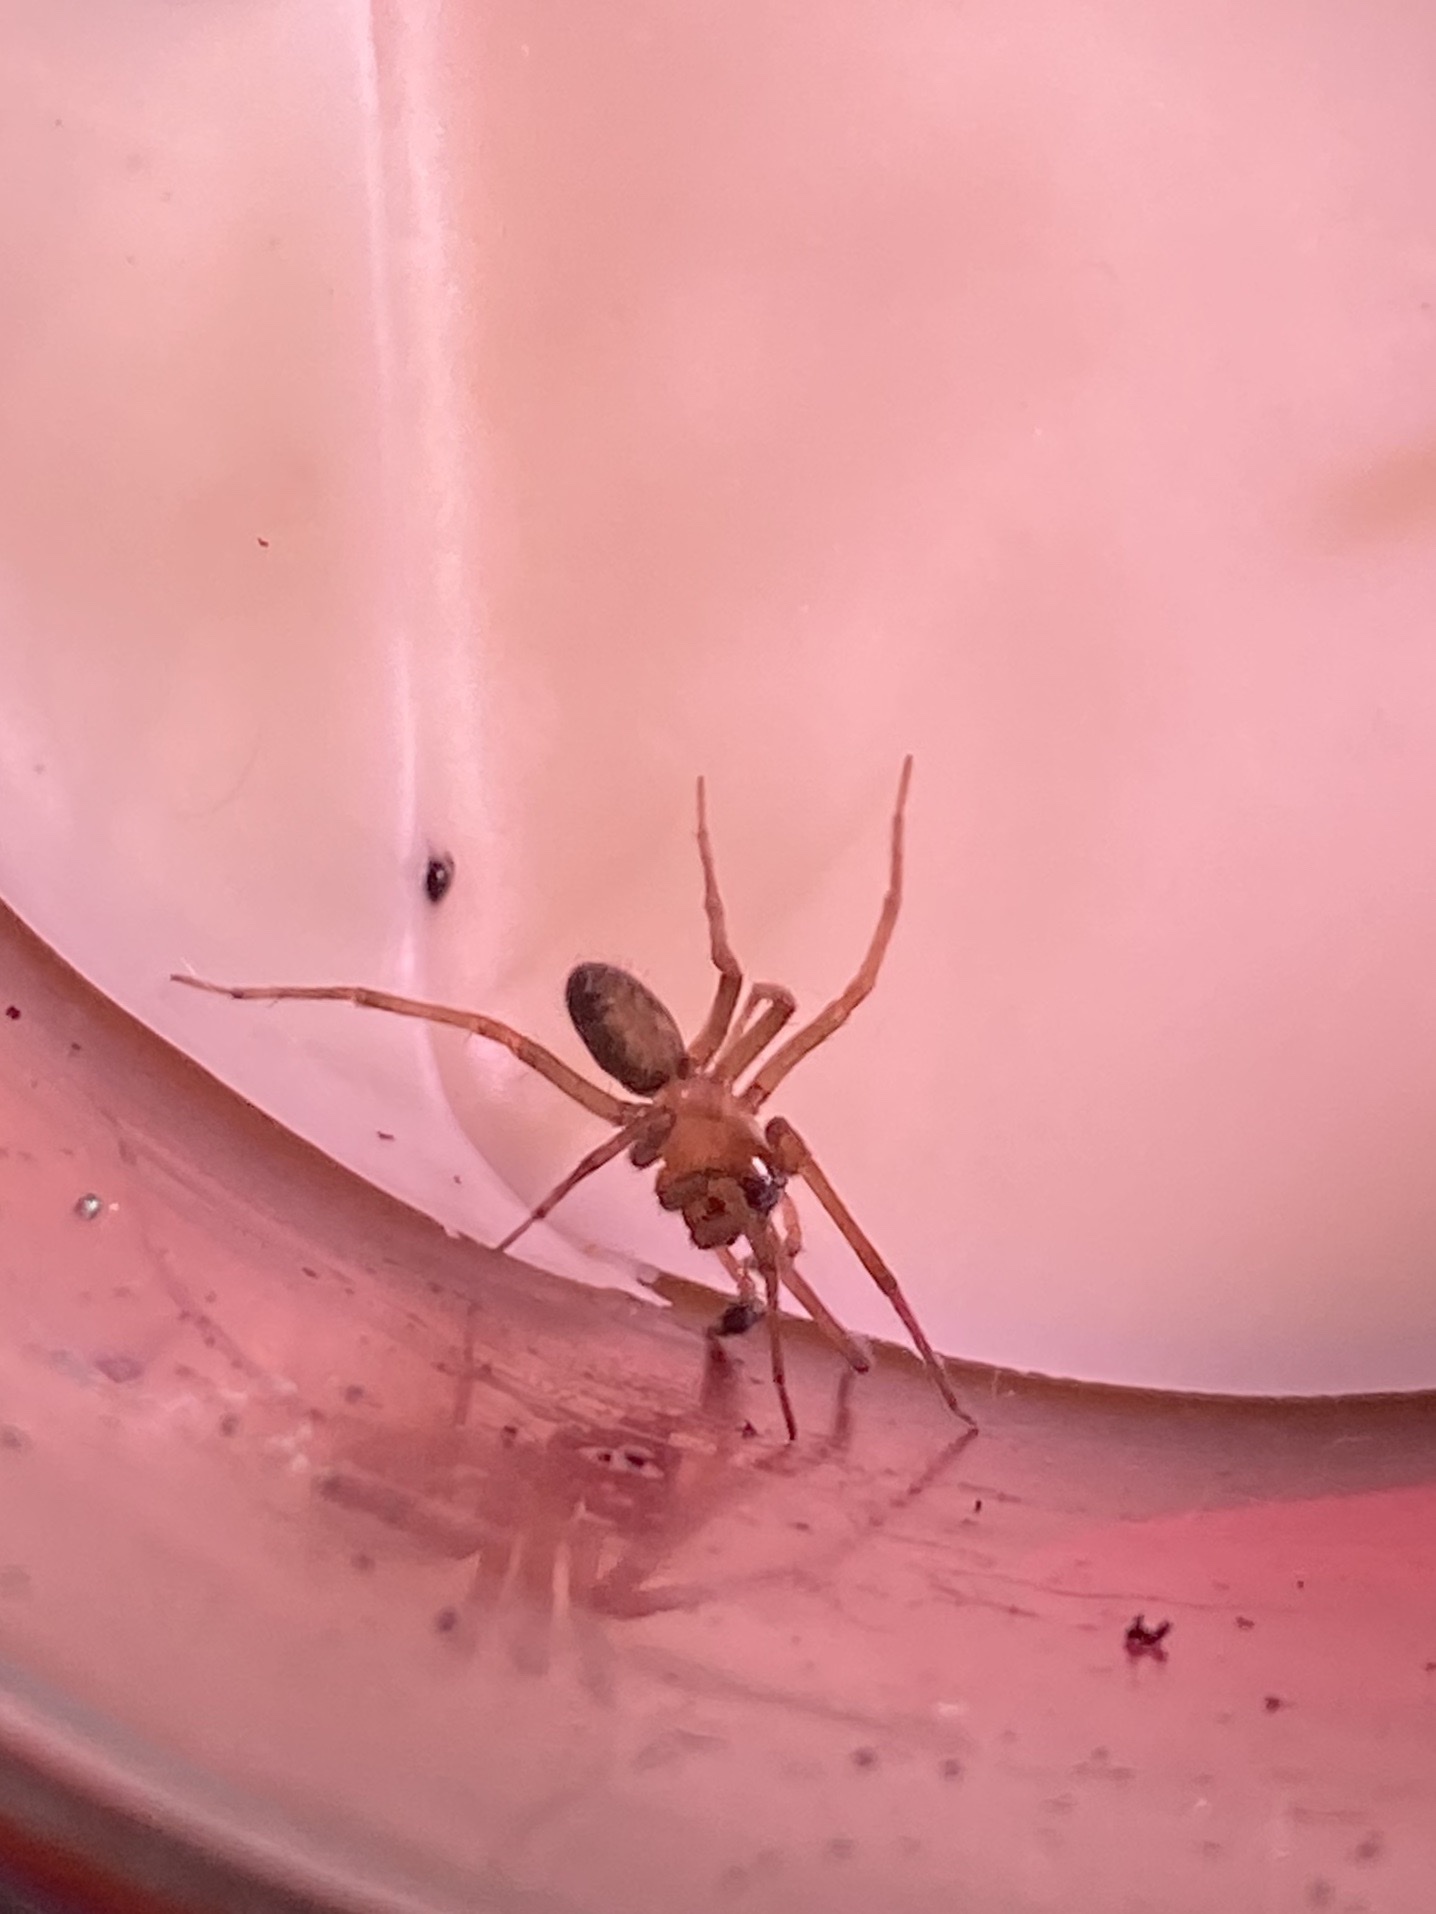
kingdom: Animalia
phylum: Arthropoda
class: Arachnida
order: Araneae
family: Desidae
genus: Metaltella
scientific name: Metaltella simoni
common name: Cribellate spider
